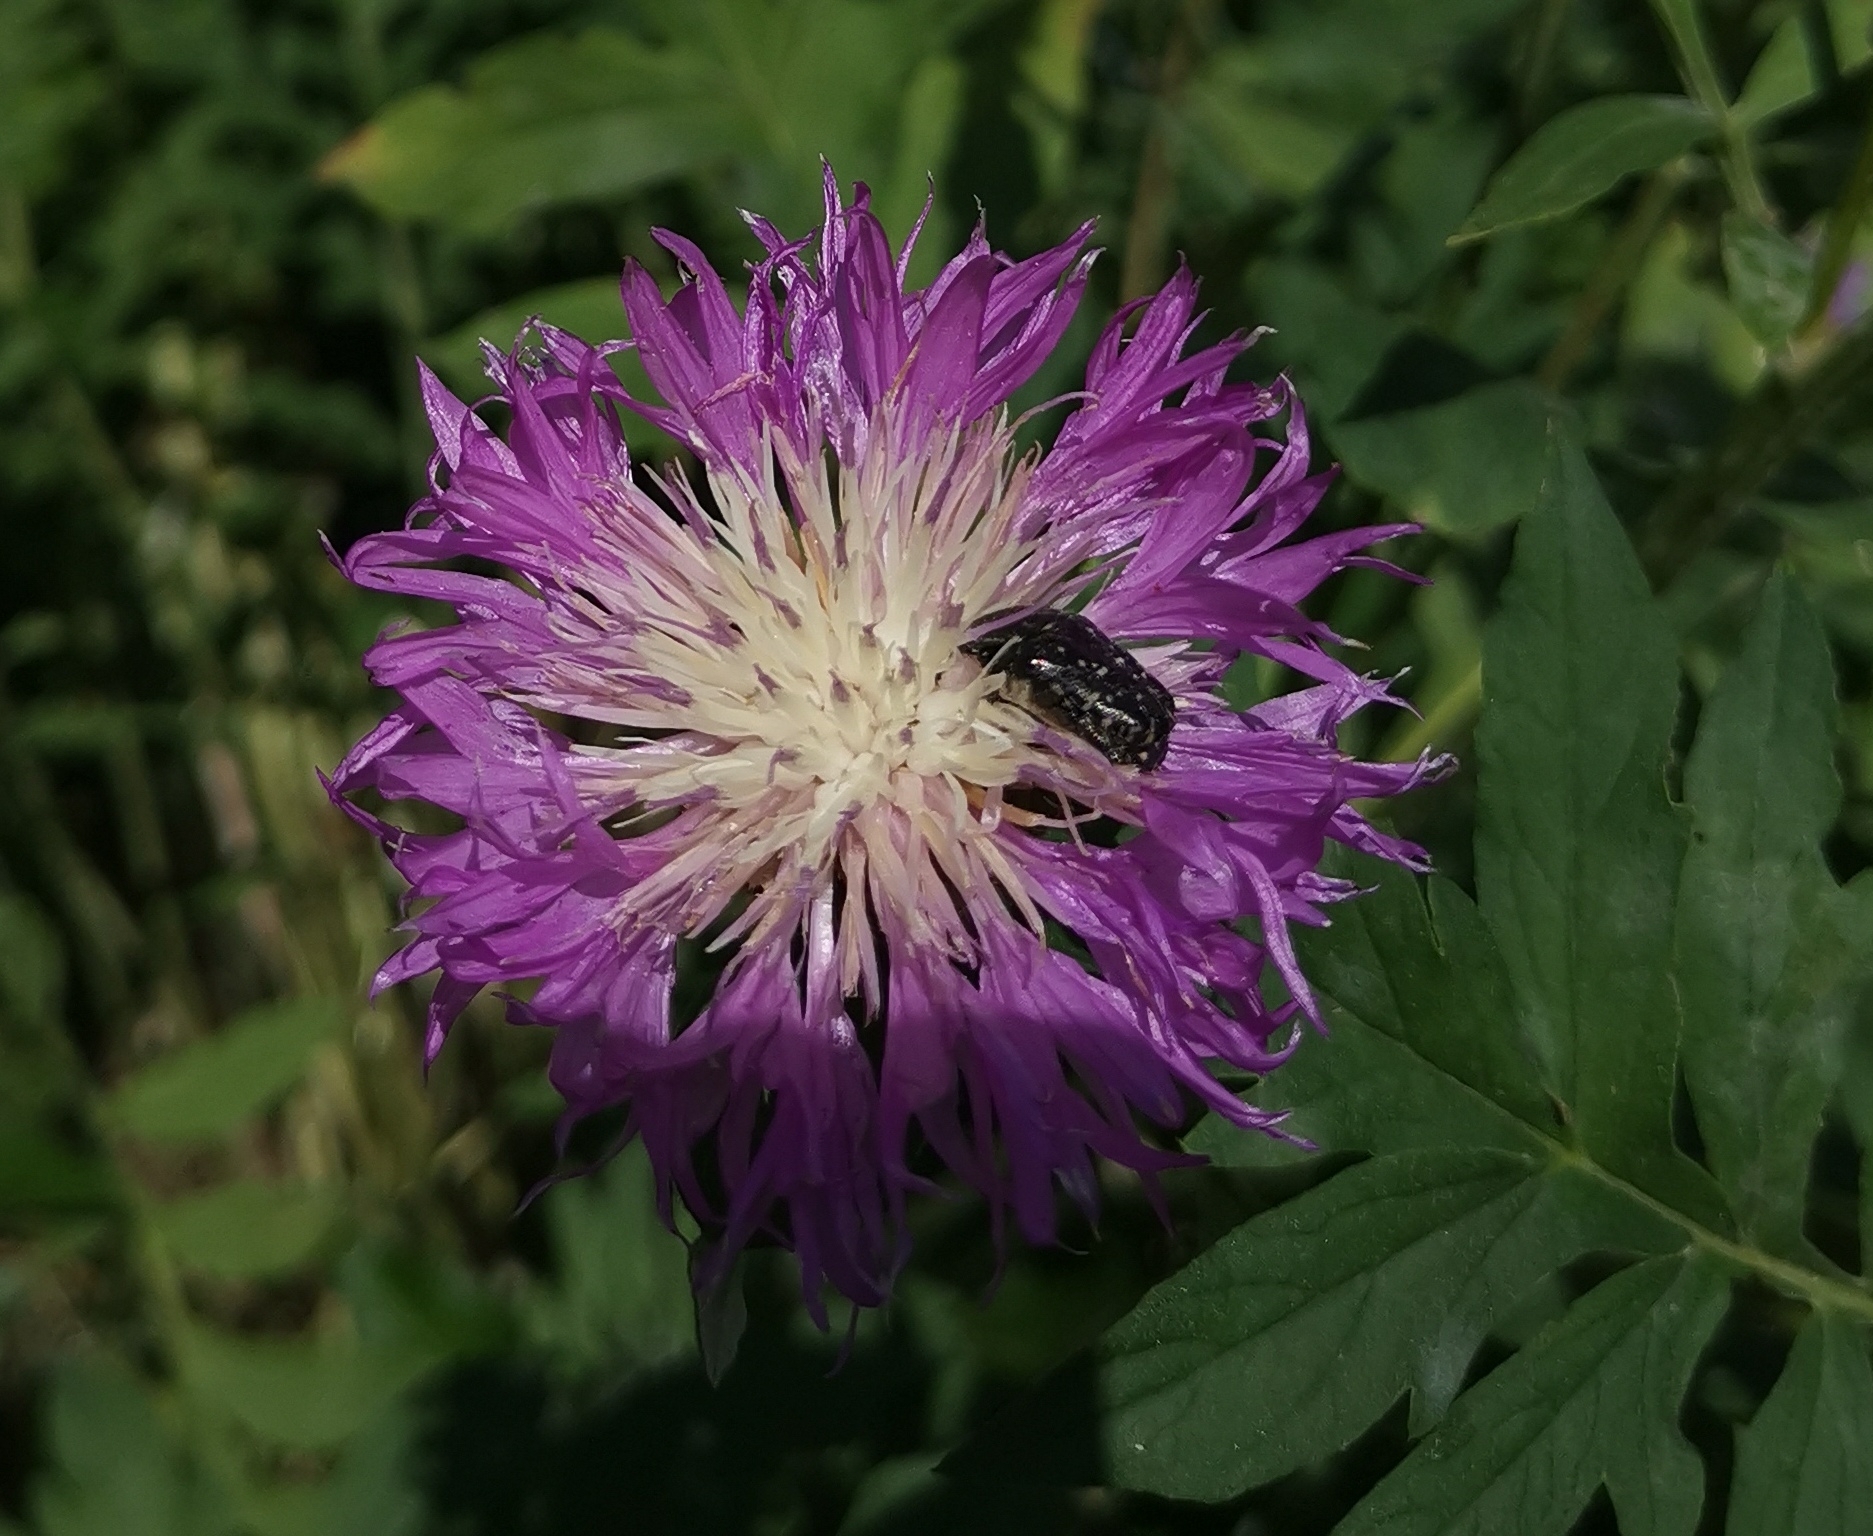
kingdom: Animalia
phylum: Arthropoda
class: Insecta
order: Coleoptera
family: Scarabaeidae
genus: Oxythyrea
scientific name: Oxythyrea funesta
